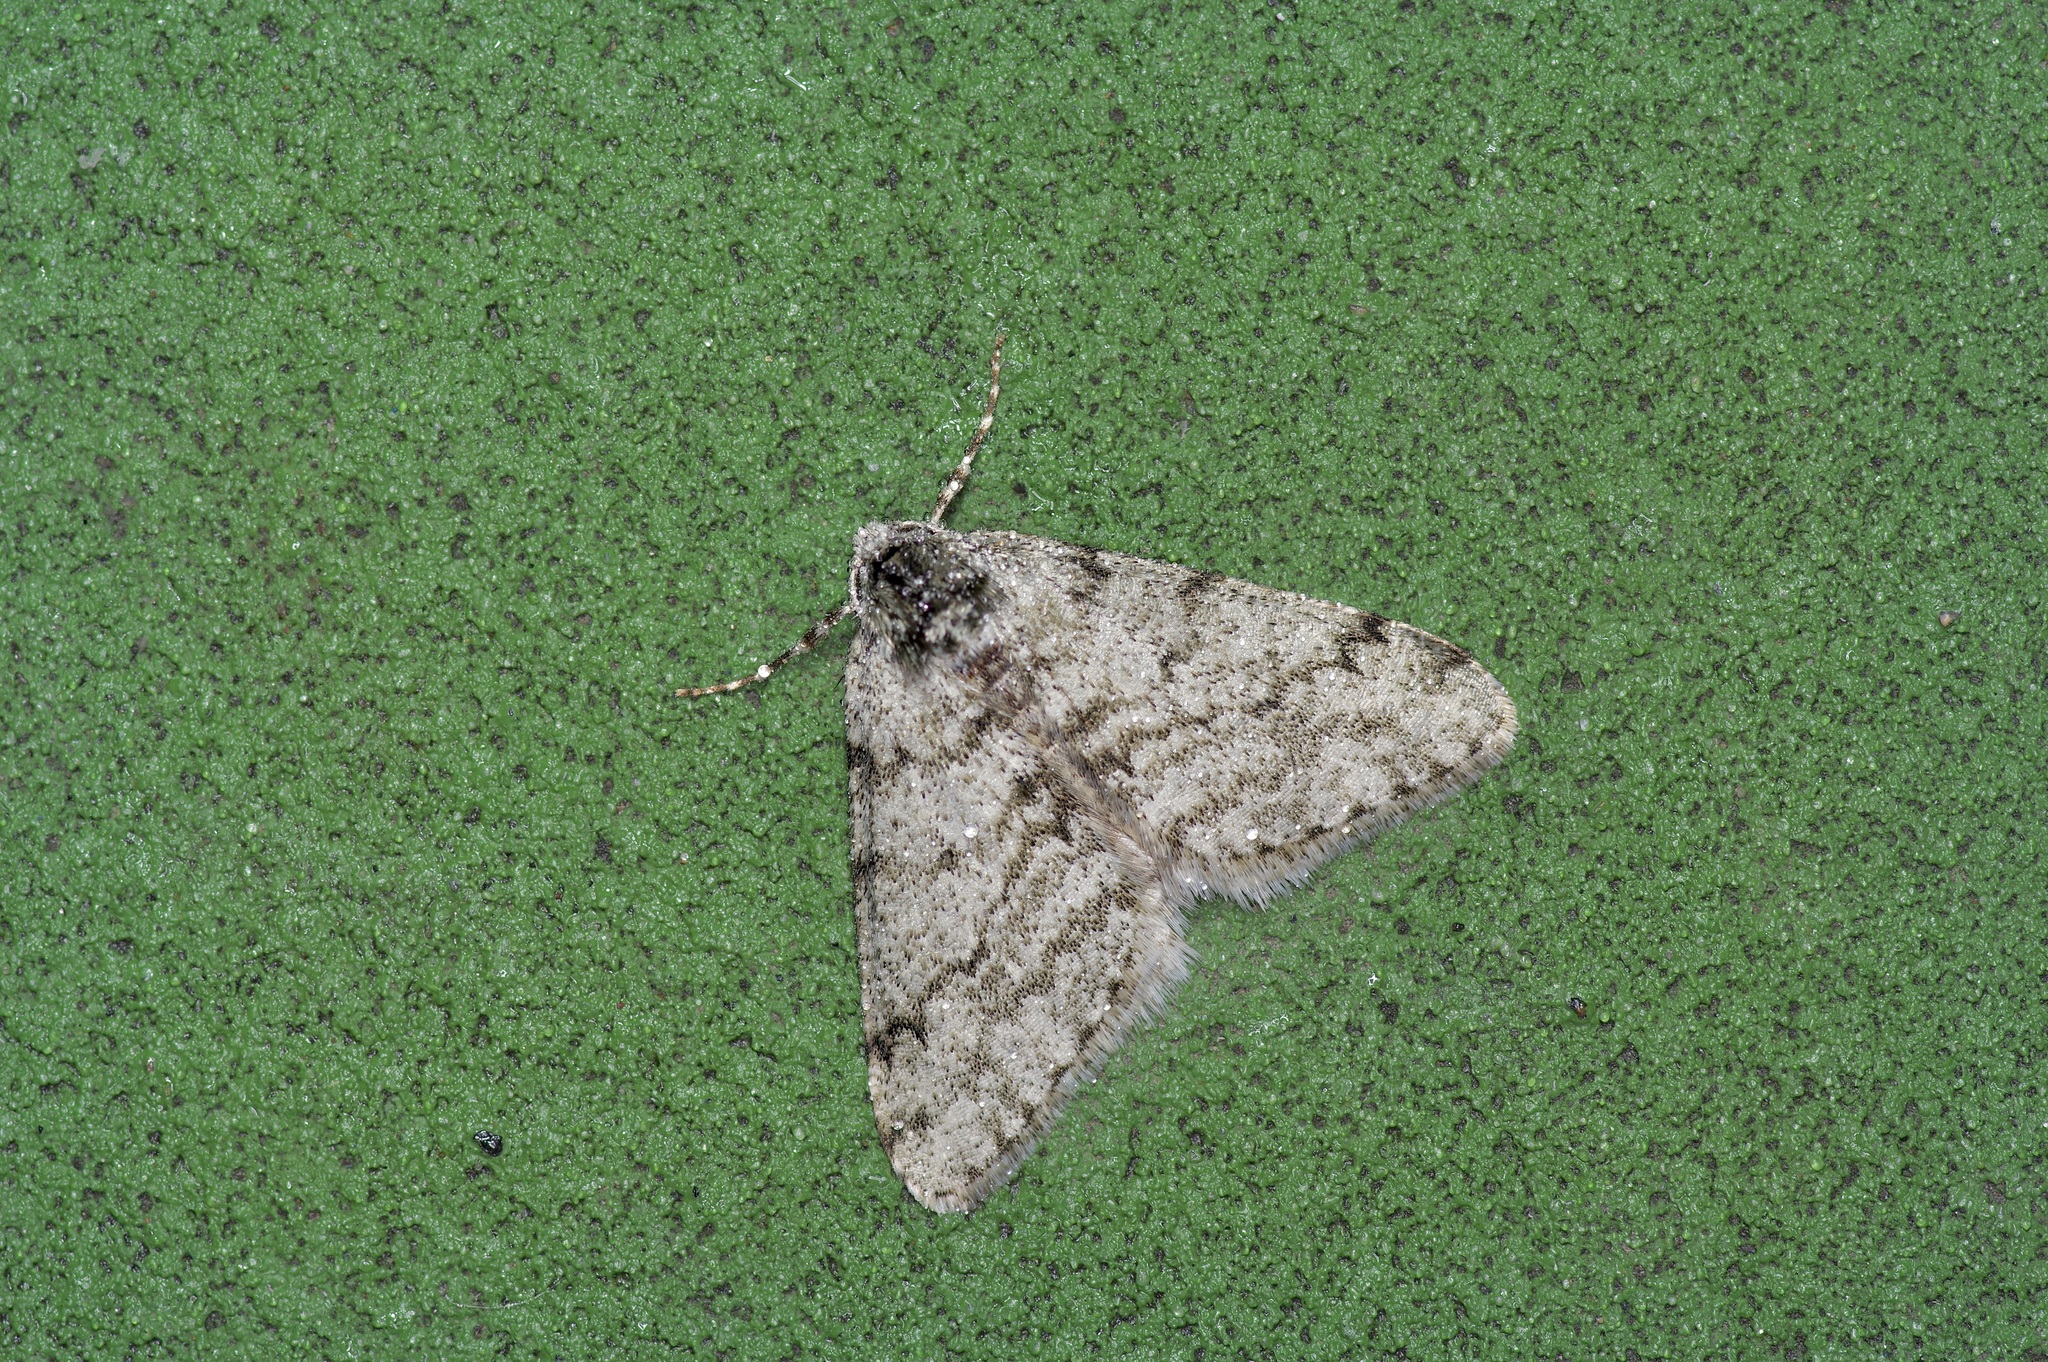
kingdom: Animalia
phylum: Arthropoda
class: Insecta
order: Lepidoptera
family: Geometridae
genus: Phigalia
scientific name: Phigalia strigataria
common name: Small phigalia
